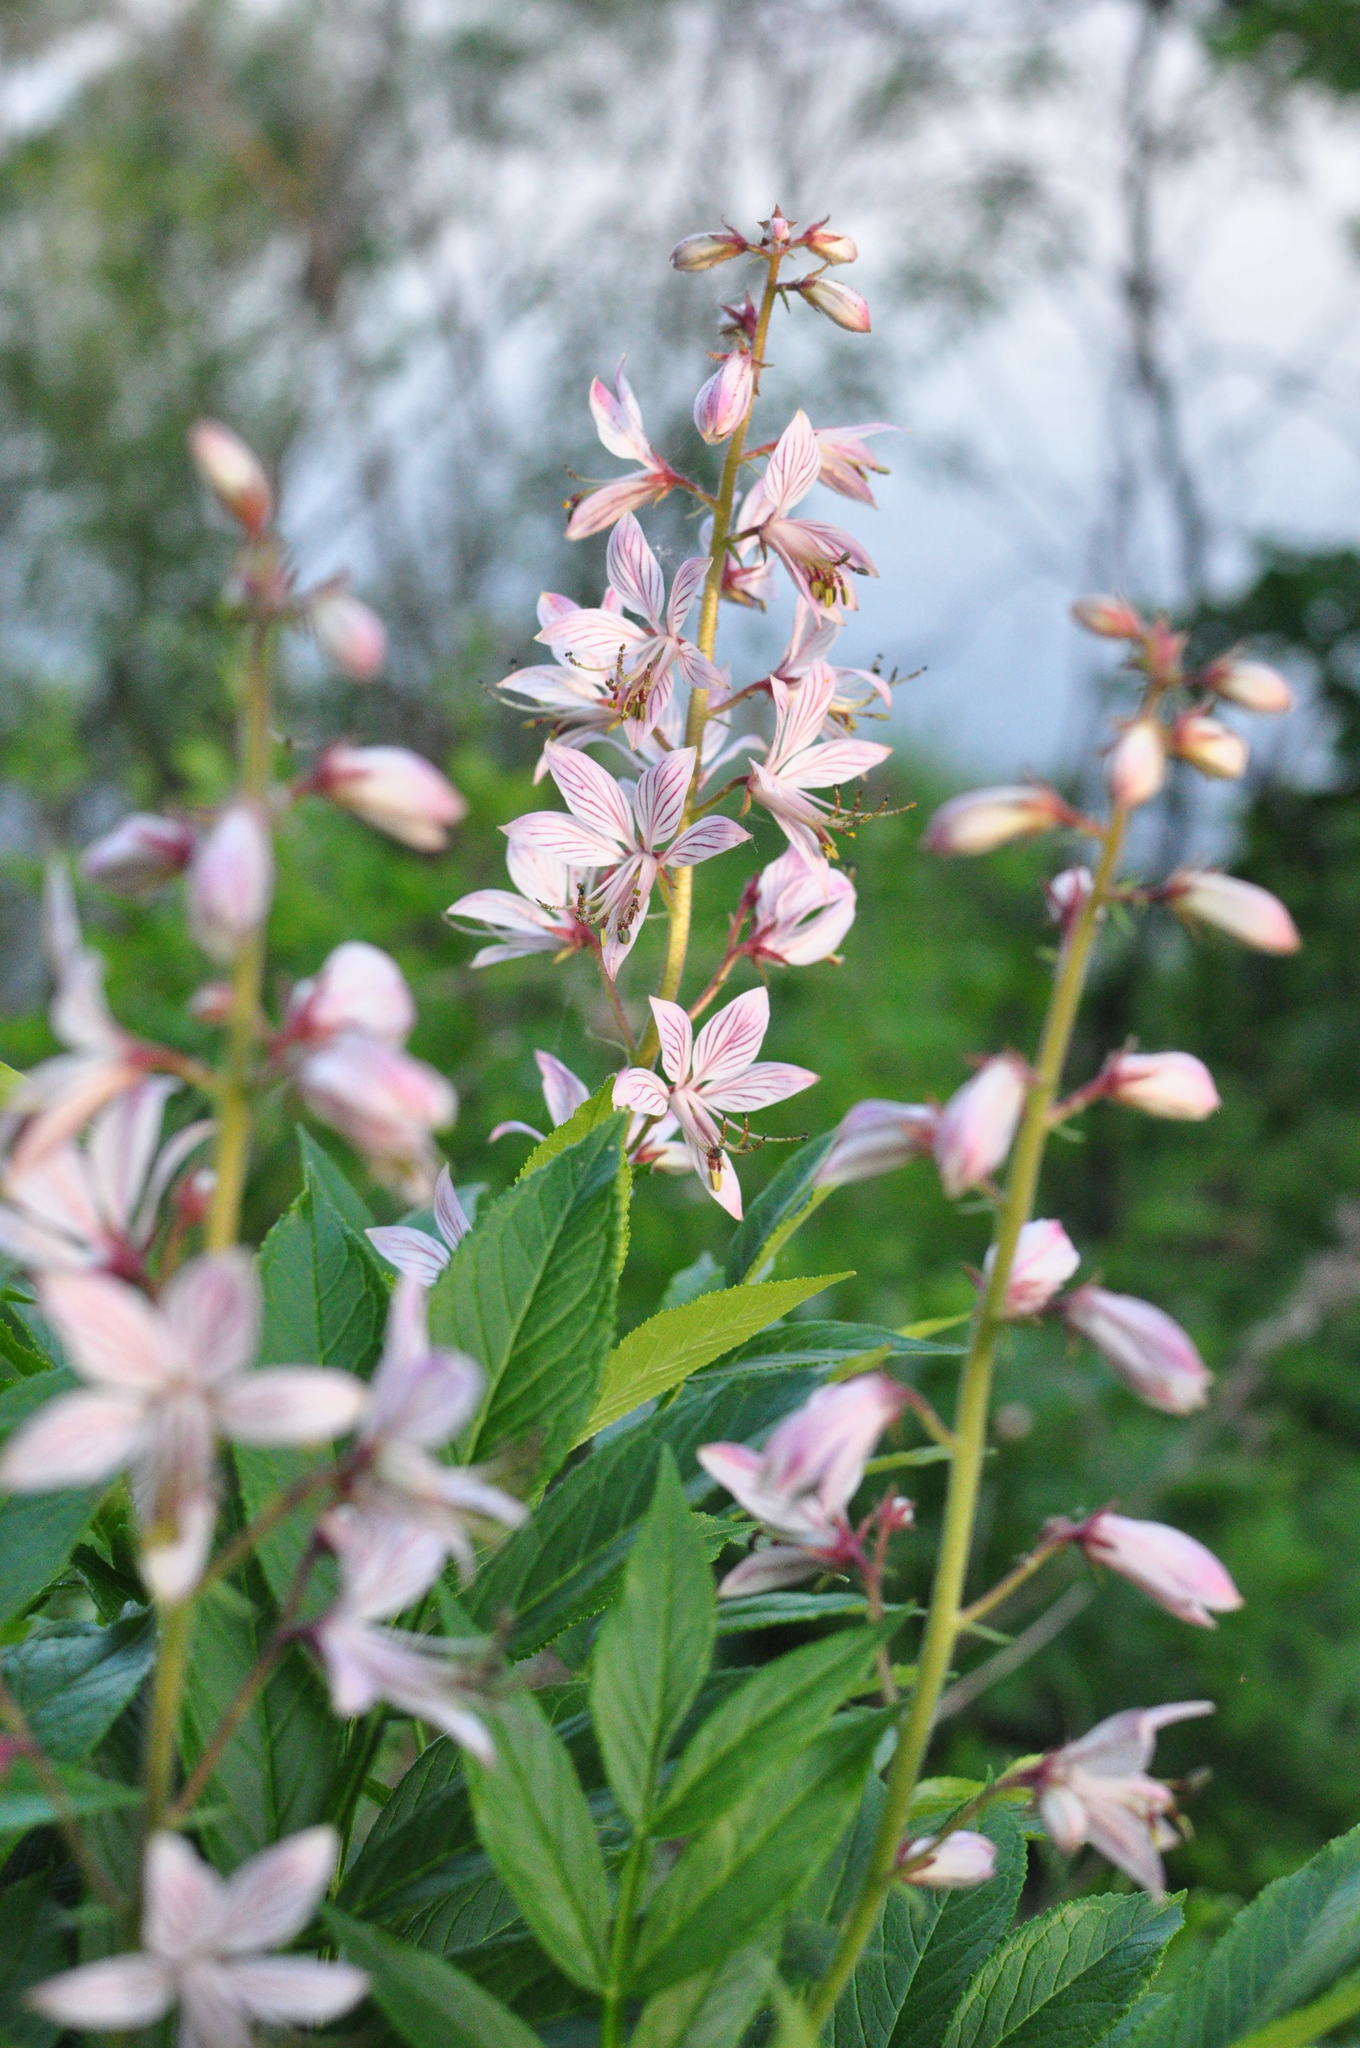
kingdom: Plantae
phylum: Tracheophyta
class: Magnoliopsida
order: Sapindales
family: Rutaceae
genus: Dictamnus
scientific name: Dictamnus dasycarpus
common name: Dense-fruit dittany
